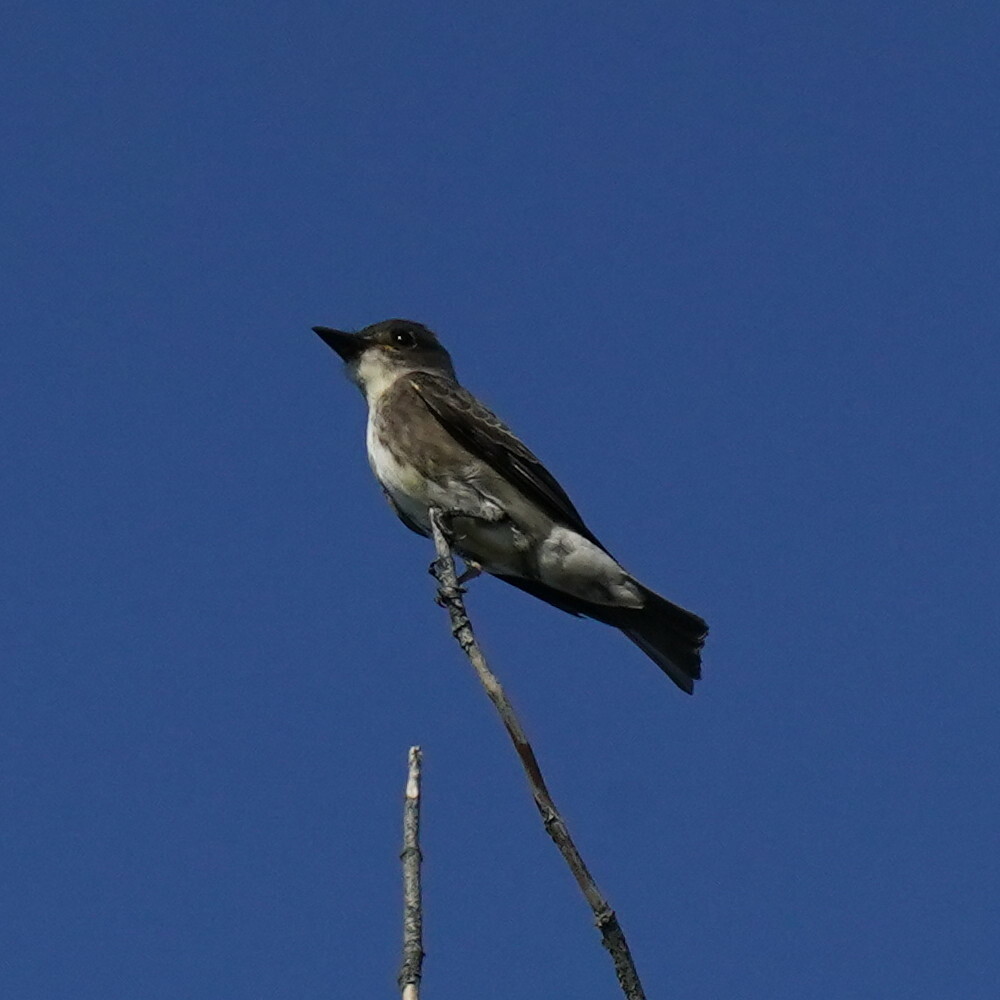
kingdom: Animalia
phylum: Chordata
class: Aves
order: Passeriformes
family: Tyrannidae
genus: Contopus
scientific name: Contopus cooperi
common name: Olive-sided flycatcher
